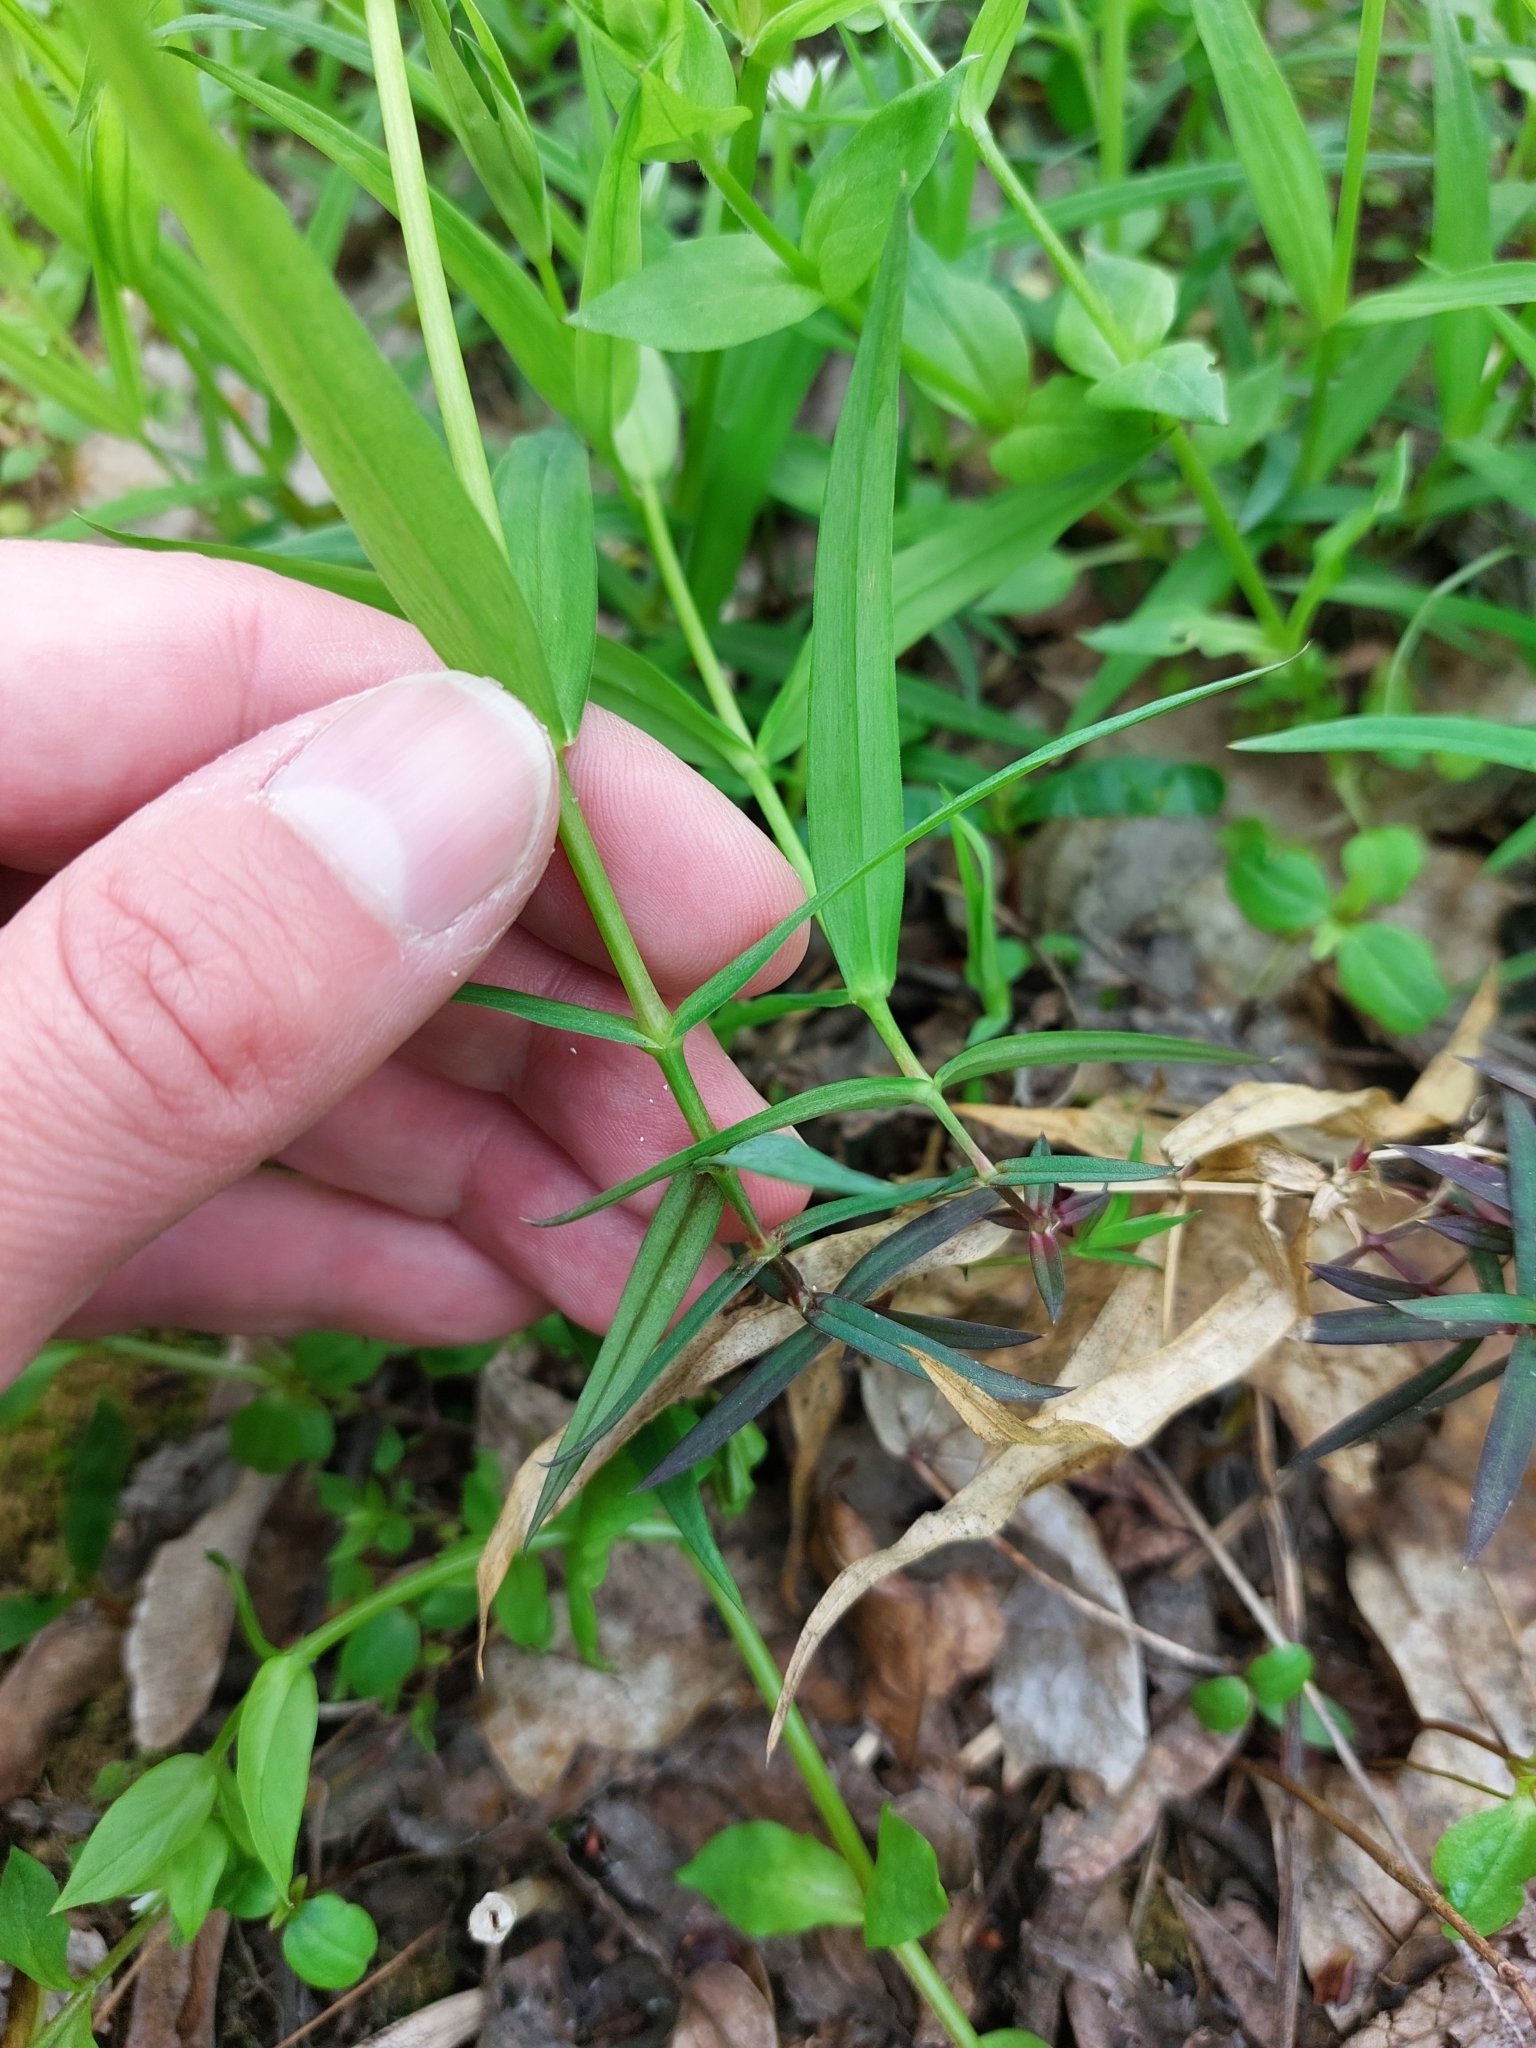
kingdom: Plantae
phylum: Tracheophyta
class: Magnoliopsida
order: Caryophyllales
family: Caryophyllaceae
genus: Rabelera
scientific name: Rabelera holostea
